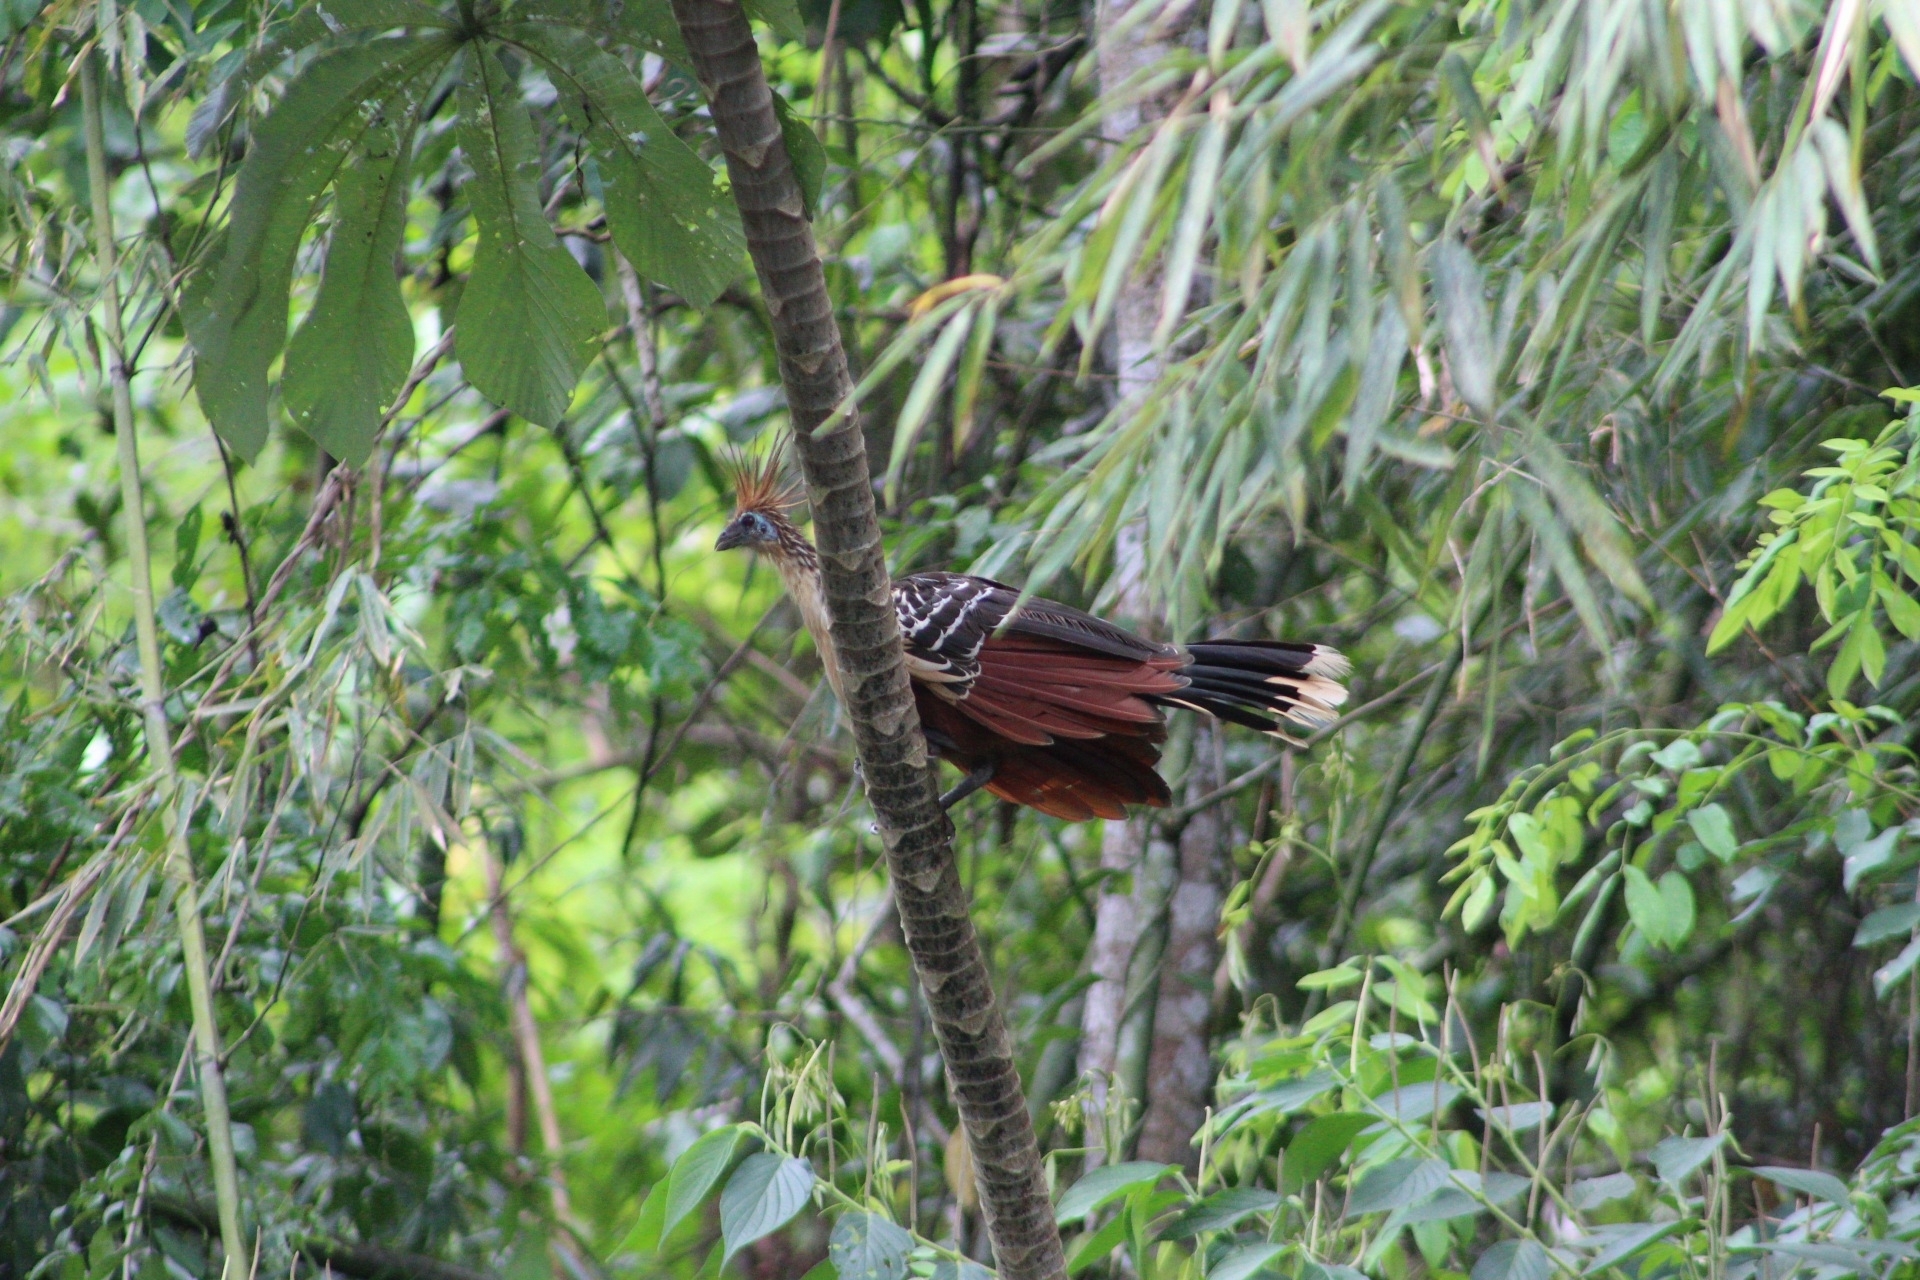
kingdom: Animalia
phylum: Chordata
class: Aves
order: Opisthocomiformes
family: Opisthocomidae
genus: Opisthocomus
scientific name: Opisthocomus hoazin
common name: Hoatzin
